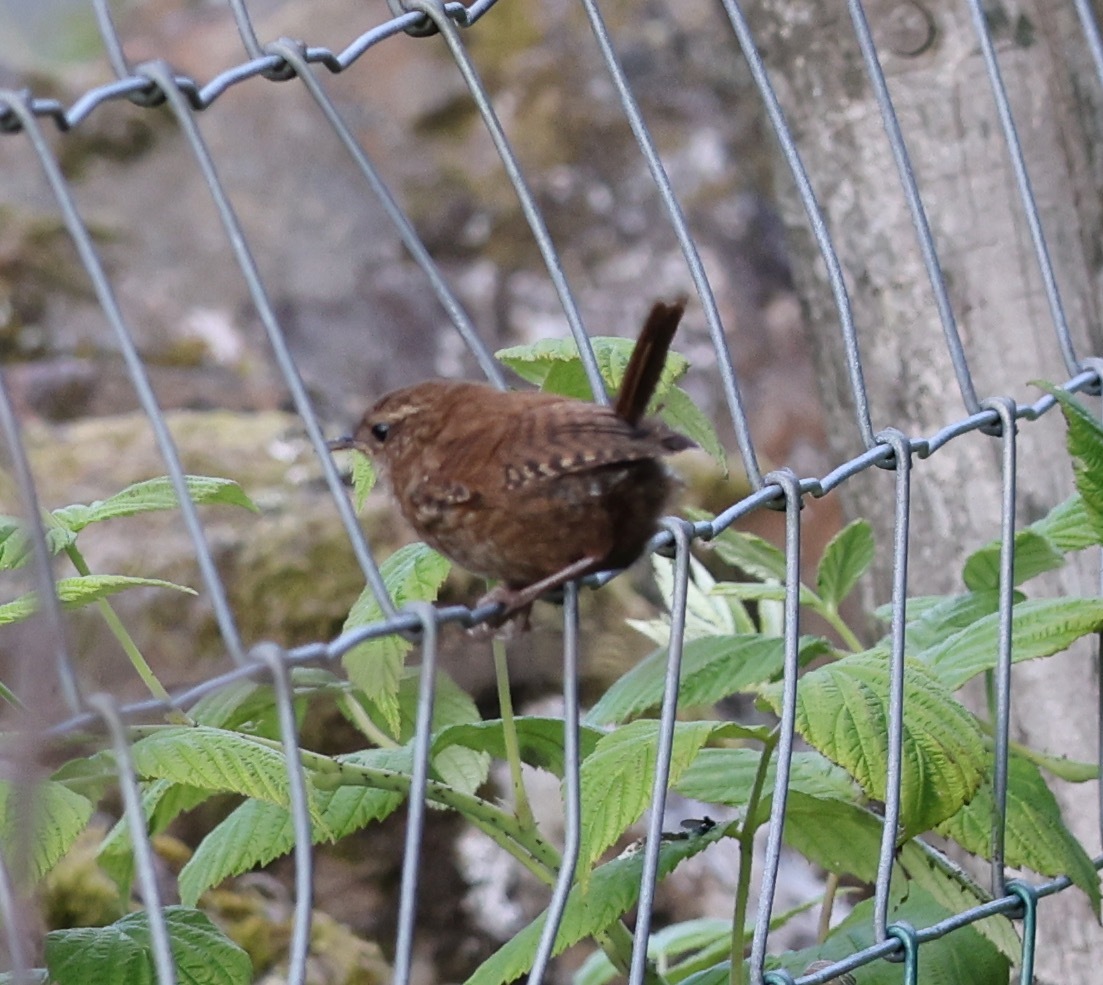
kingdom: Animalia
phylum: Chordata
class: Aves
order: Passeriformes
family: Troglodytidae
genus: Troglodytes
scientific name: Troglodytes troglodytes
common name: Eurasian wren
